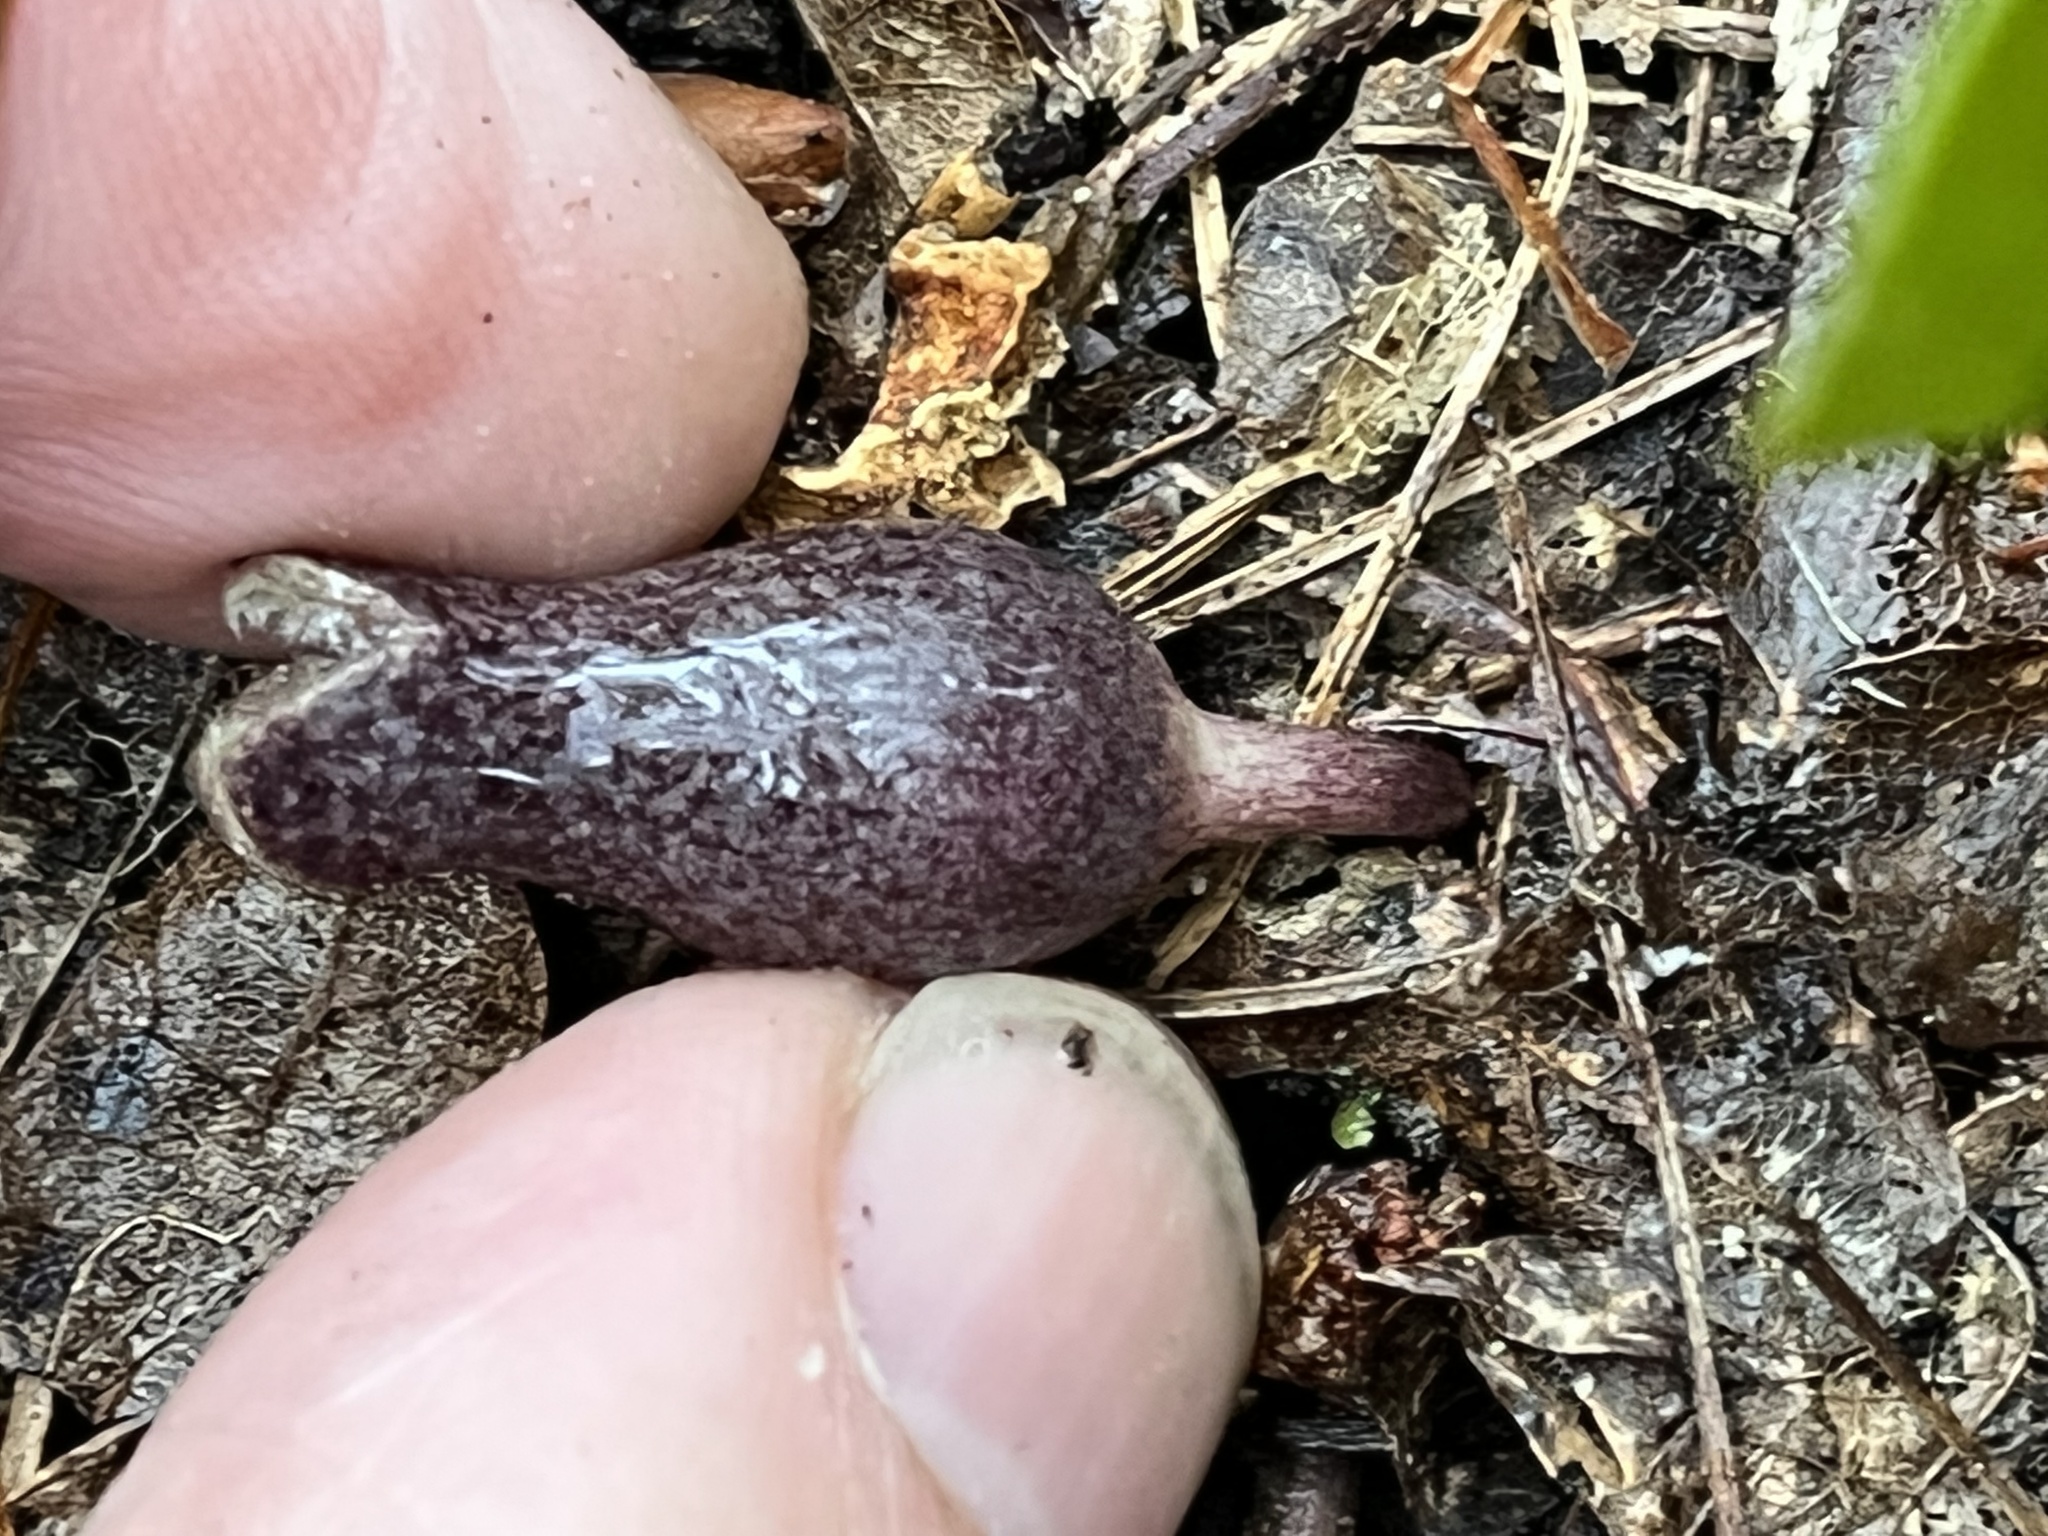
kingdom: Plantae
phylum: Tracheophyta
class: Magnoliopsida
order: Piperales
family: Aristolochiaceae
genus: Hexastylis
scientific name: Hexastylis arifolia
